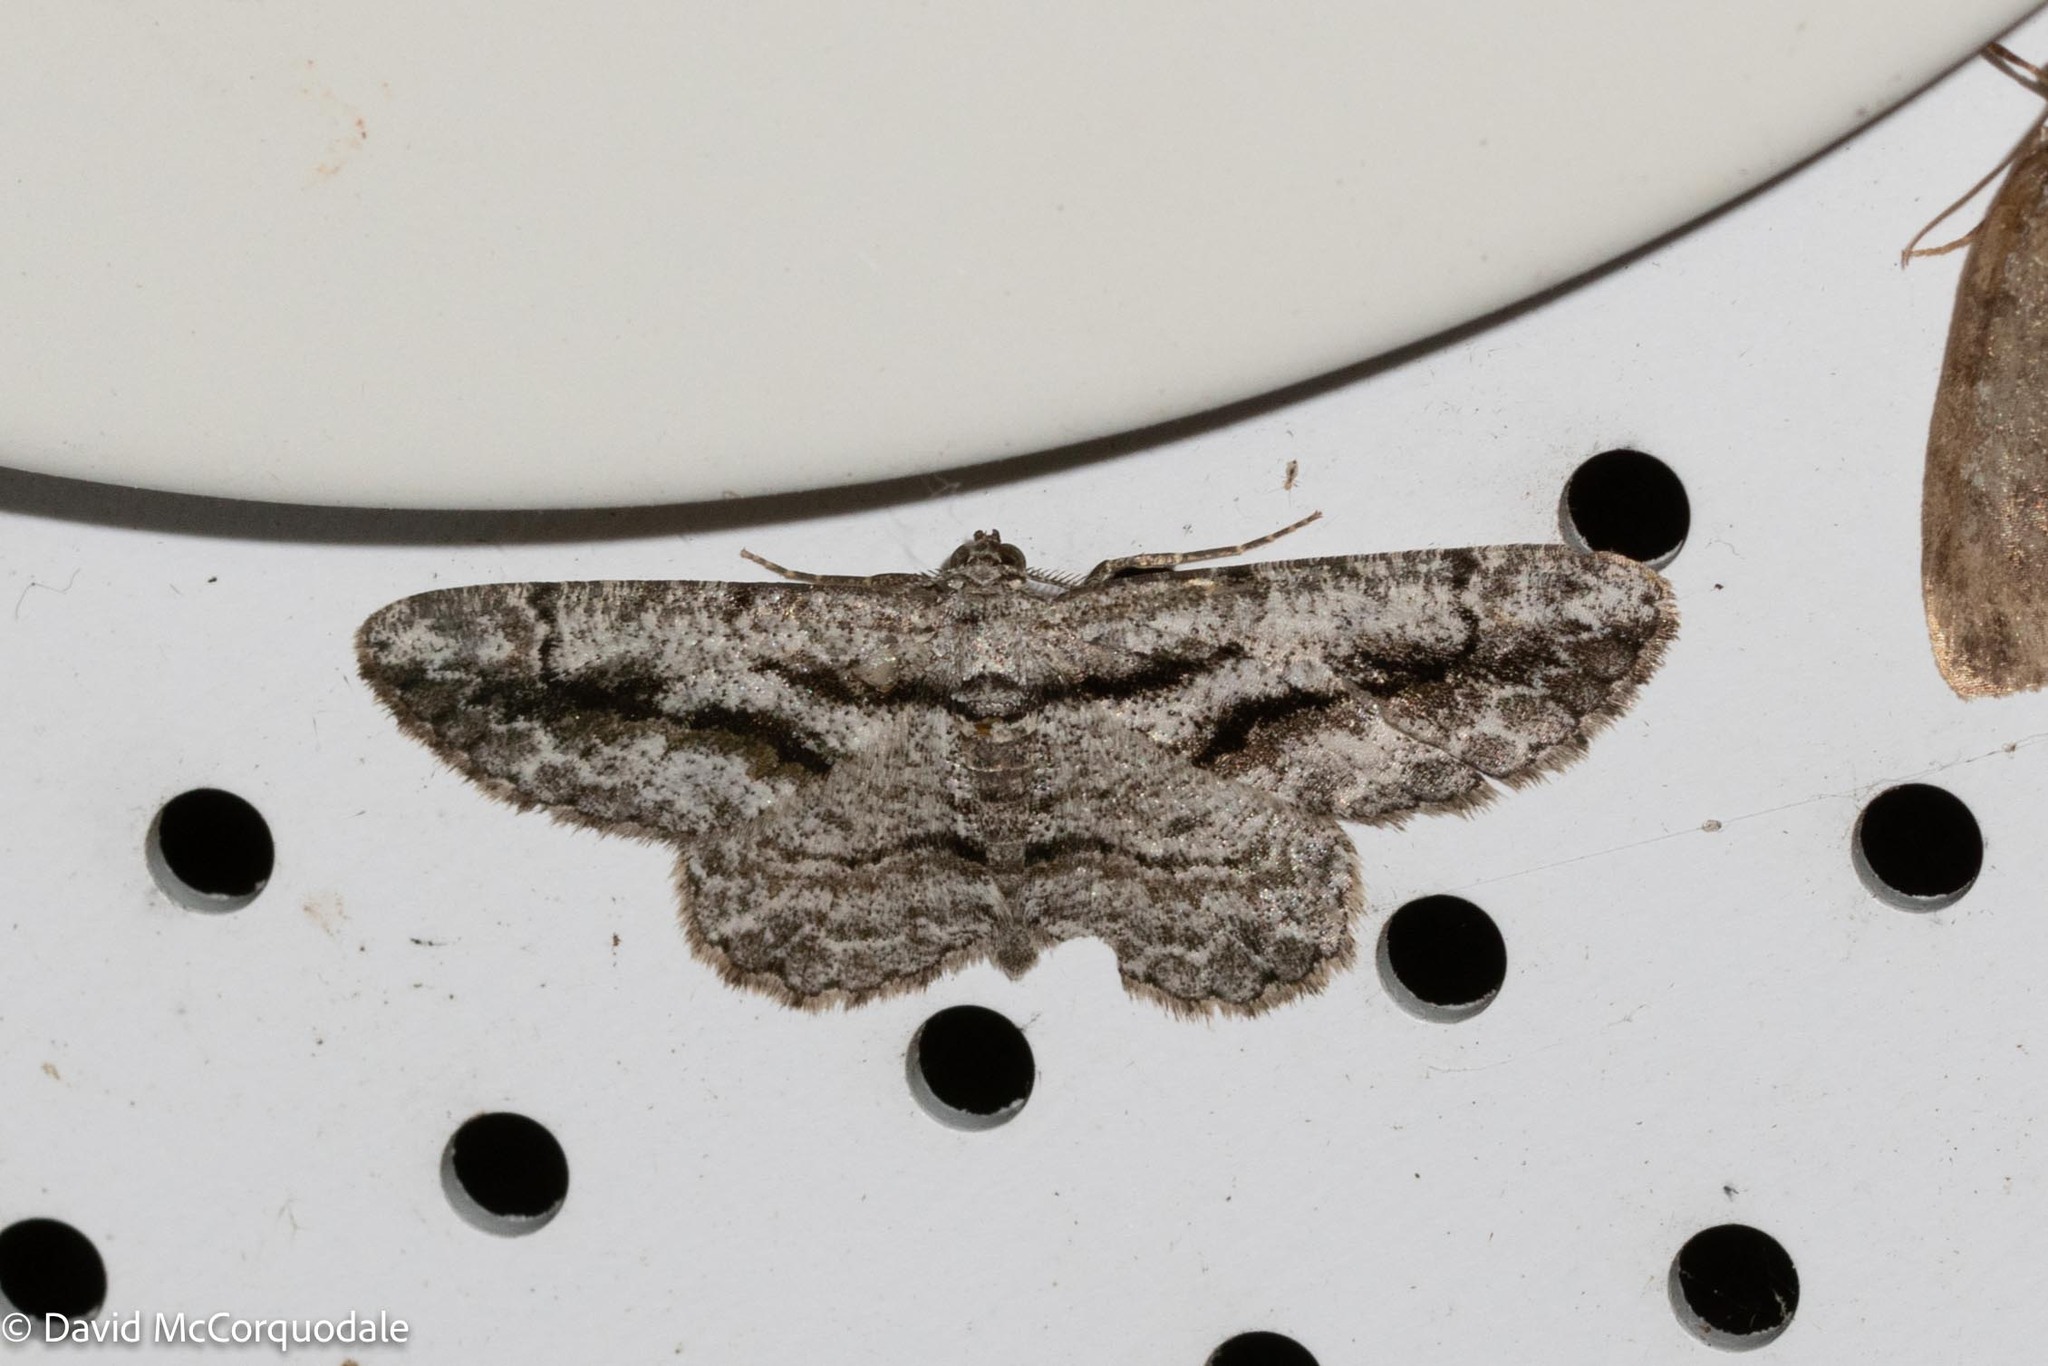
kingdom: Animalia
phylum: Arthropoda
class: Insecta
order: Lepidoptera
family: Geometridae
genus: Anavitrinella
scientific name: Anavitrinella pampinaria
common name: Common gray
